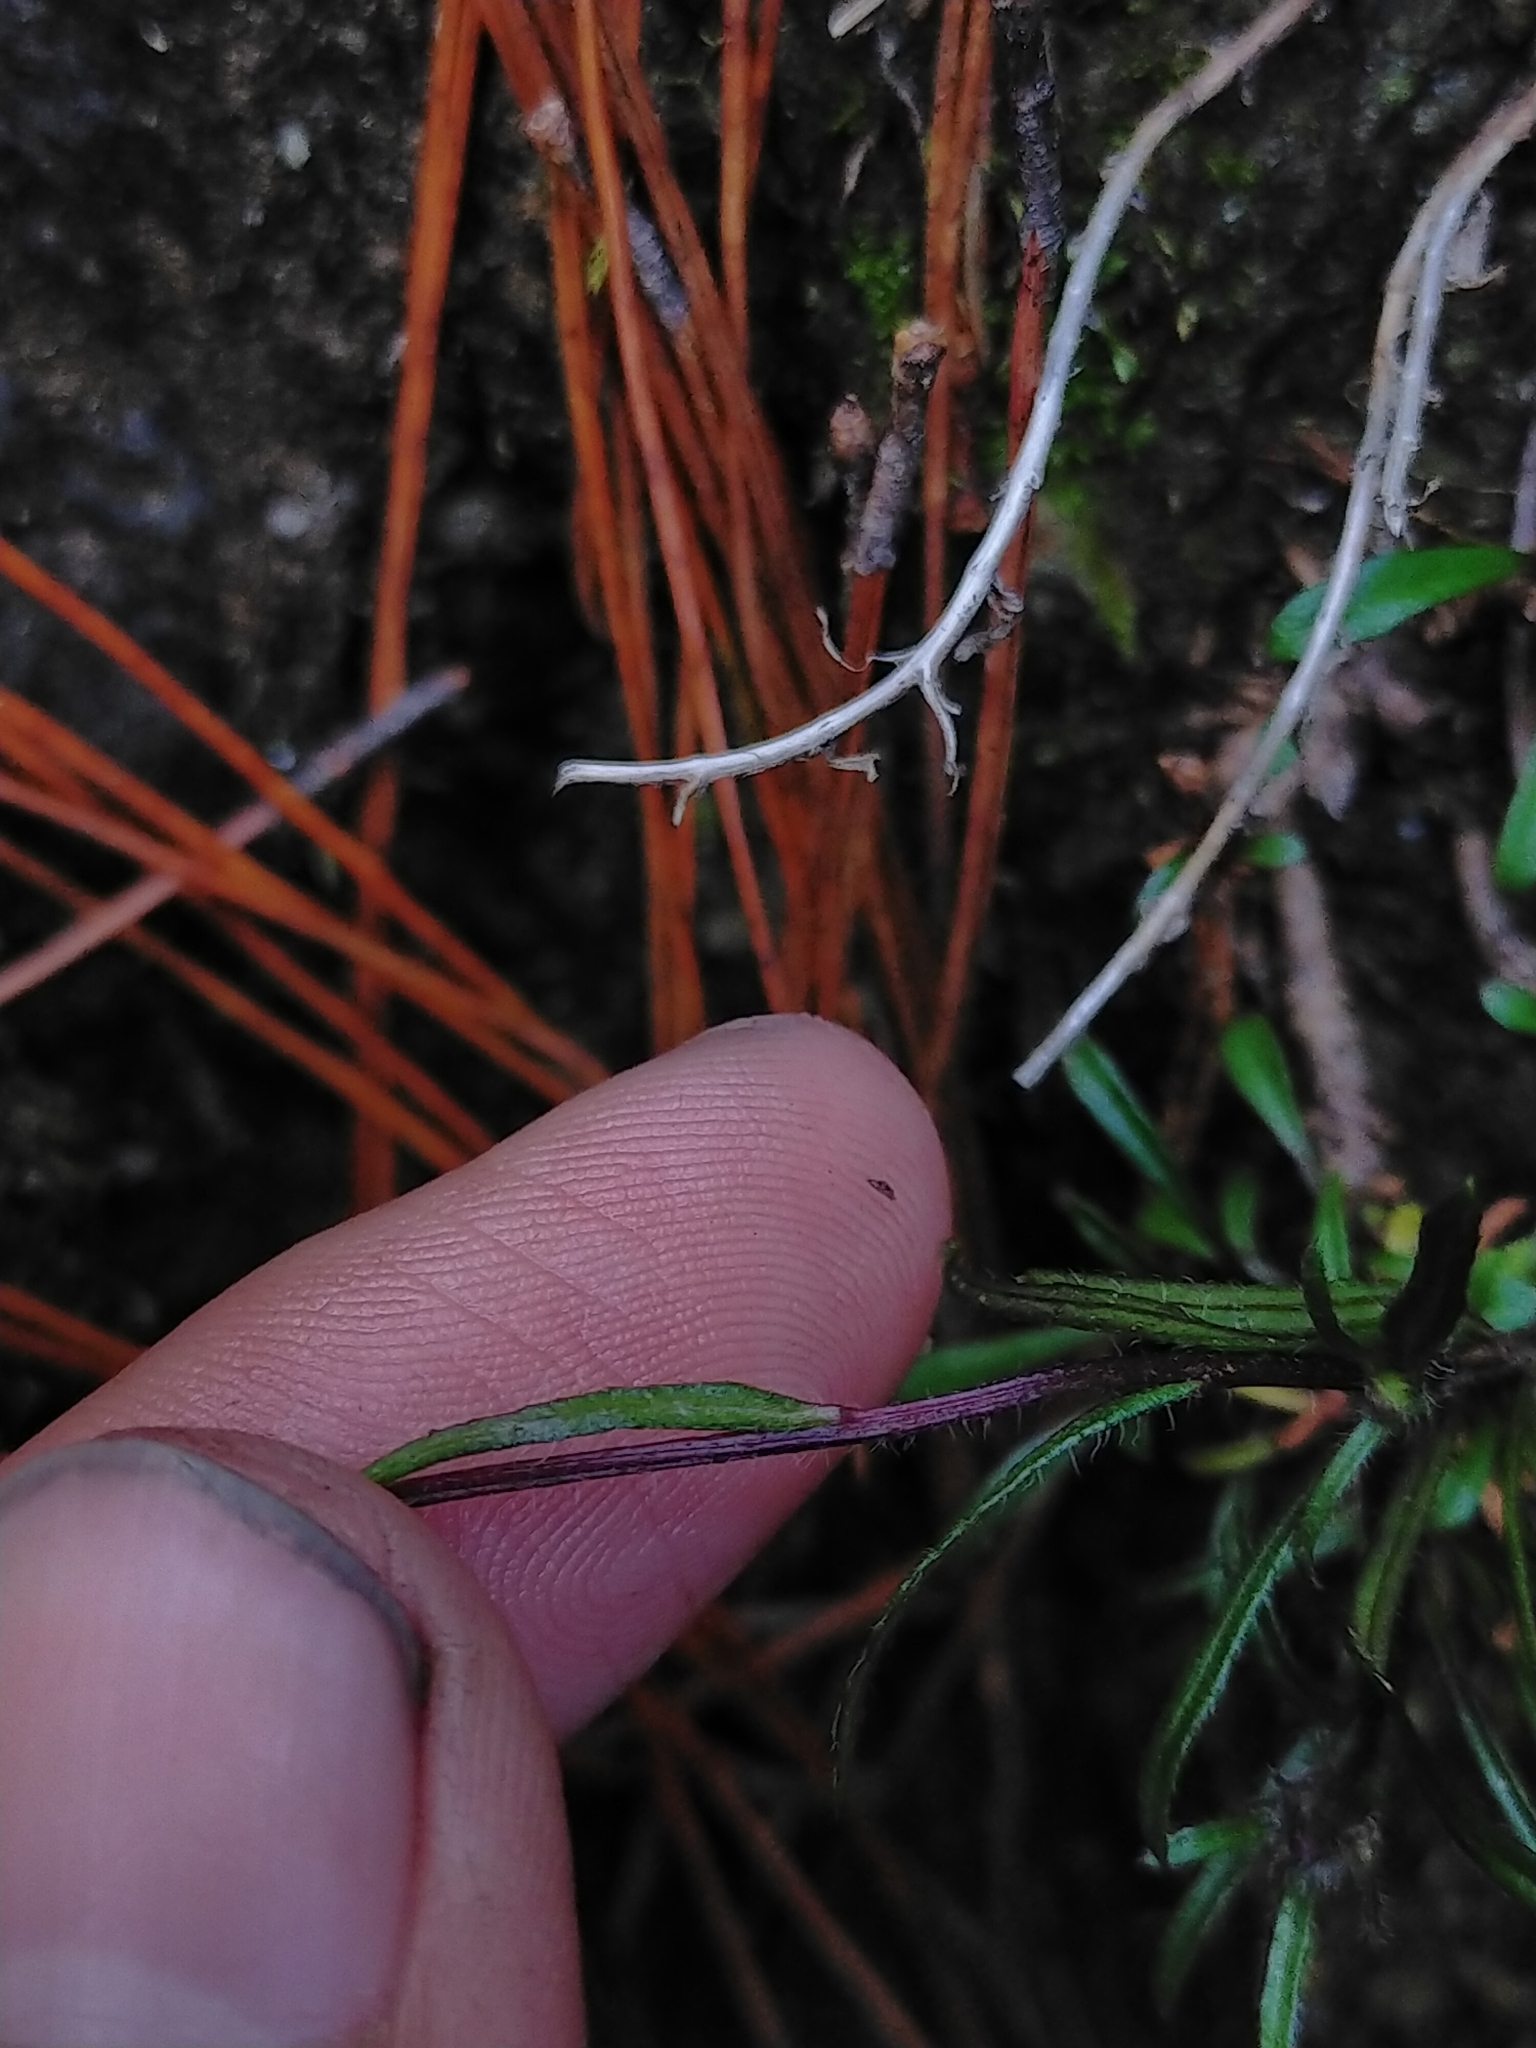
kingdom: Plantae
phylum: Tracheophyta
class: Magnoliopsida
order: Asterales
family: Asteraceae
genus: Erigeron
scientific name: Erigeron morrisonensis
